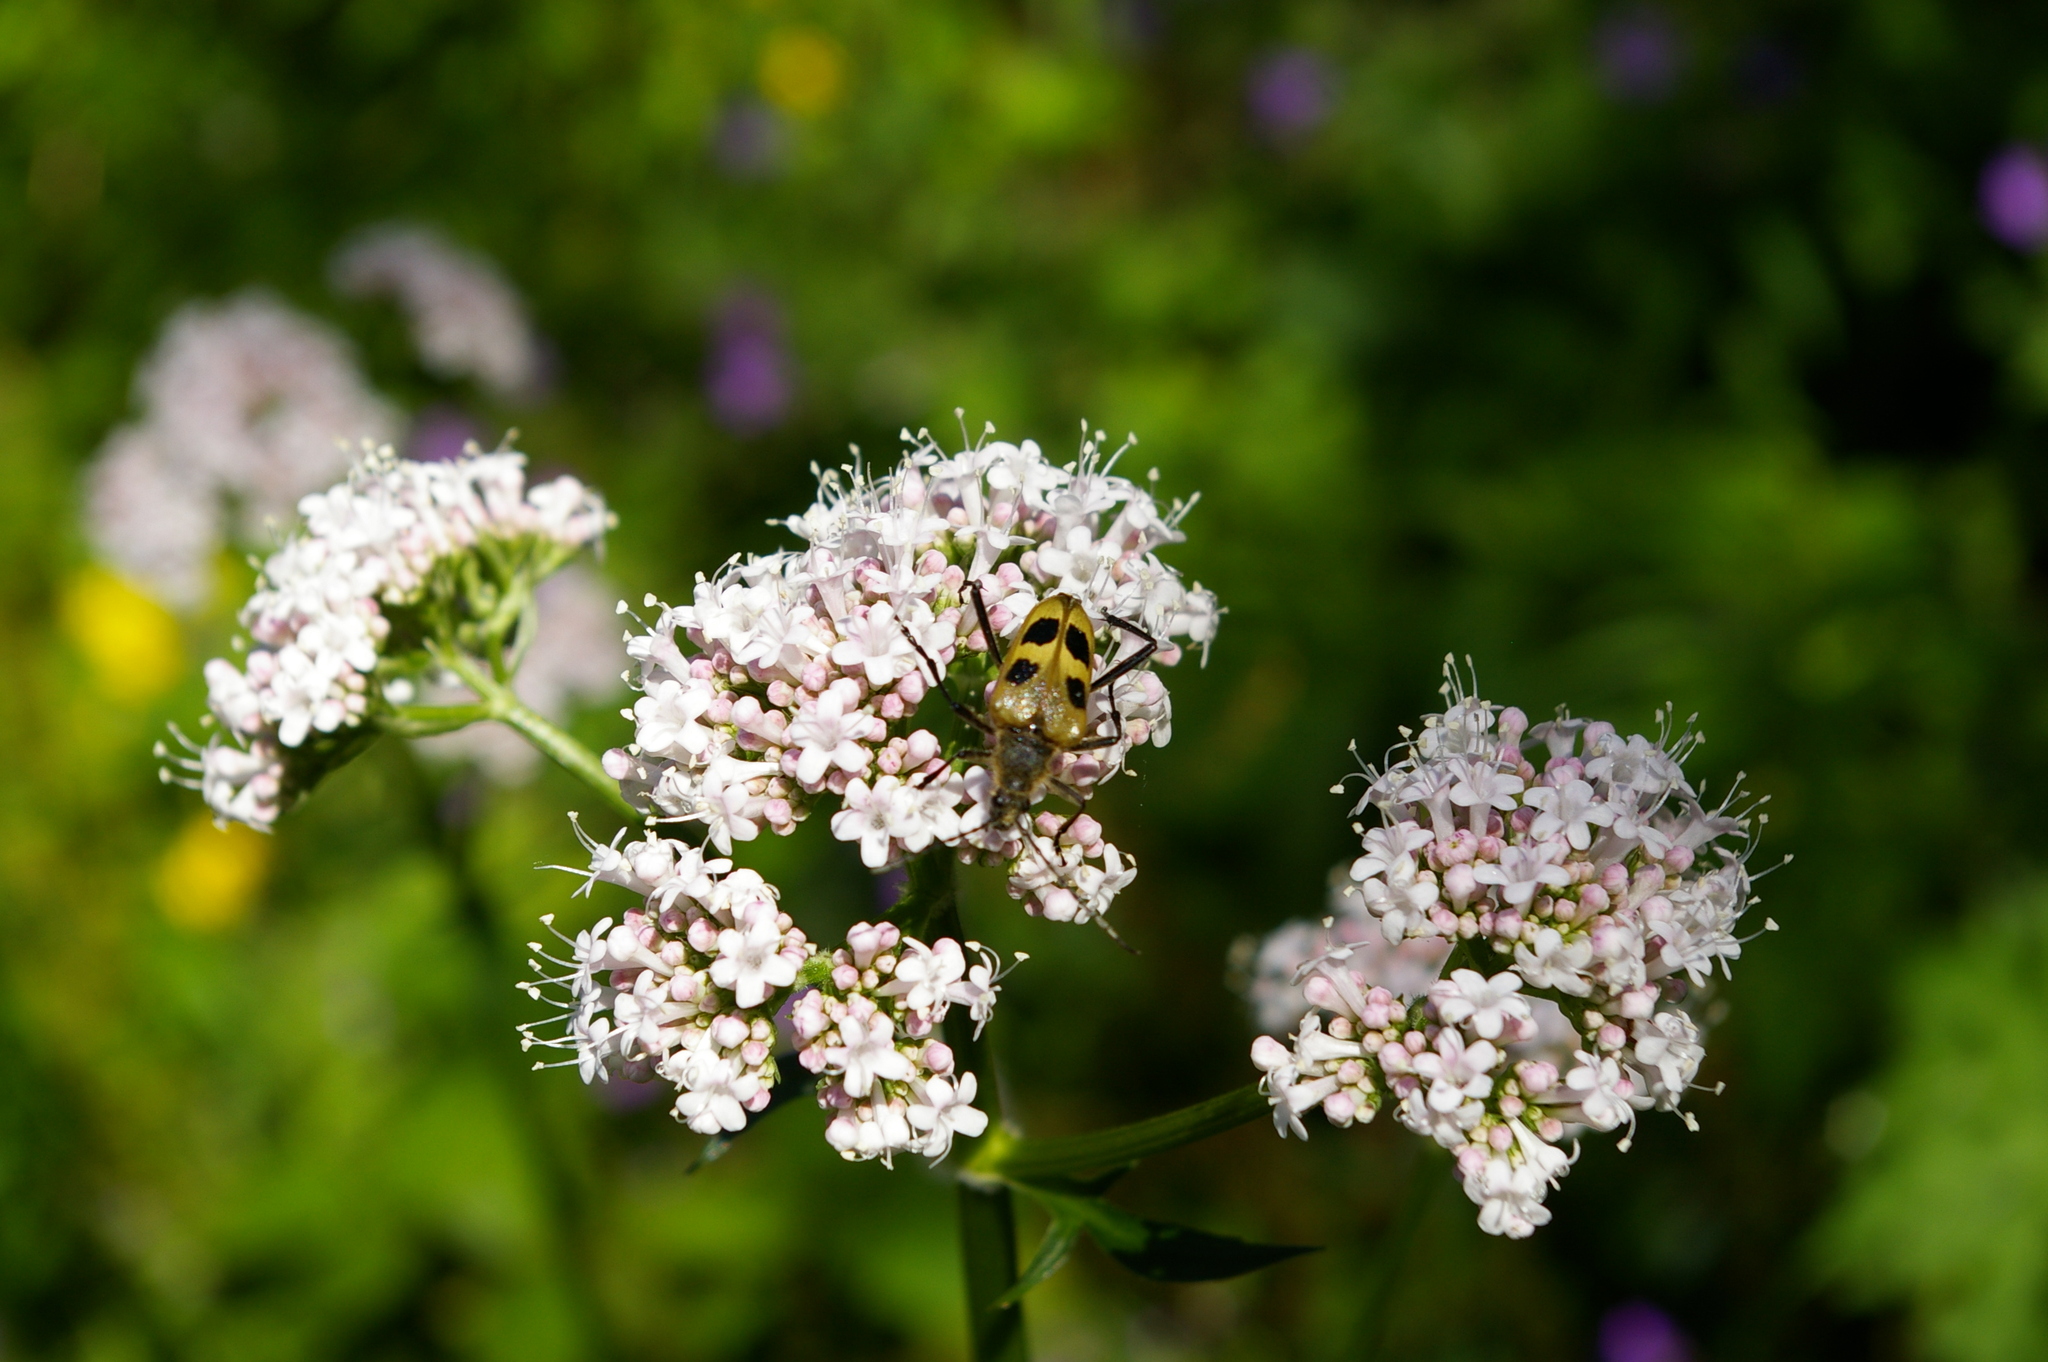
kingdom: Animalia
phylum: Arthropoda
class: Insecta
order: Coleoptera
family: Cerambycidae
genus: Pachyta
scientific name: Pachyta quadrimaculata
